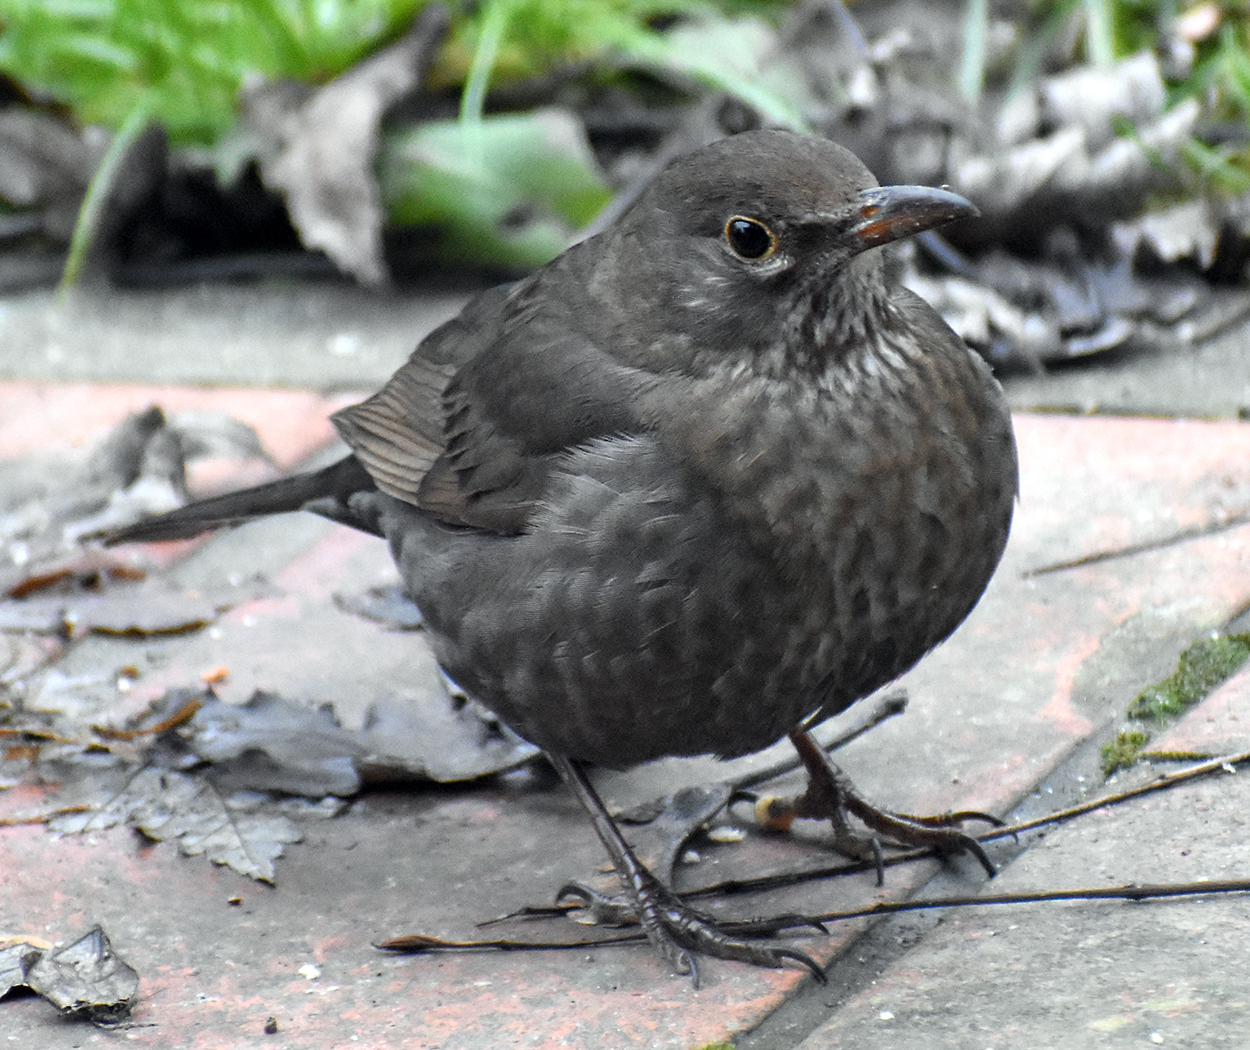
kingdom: Animalia
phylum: Chordata
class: Aves
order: Passeriformes
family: Turdidae
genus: Turdus
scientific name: Turdus merula
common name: Common blackbird
